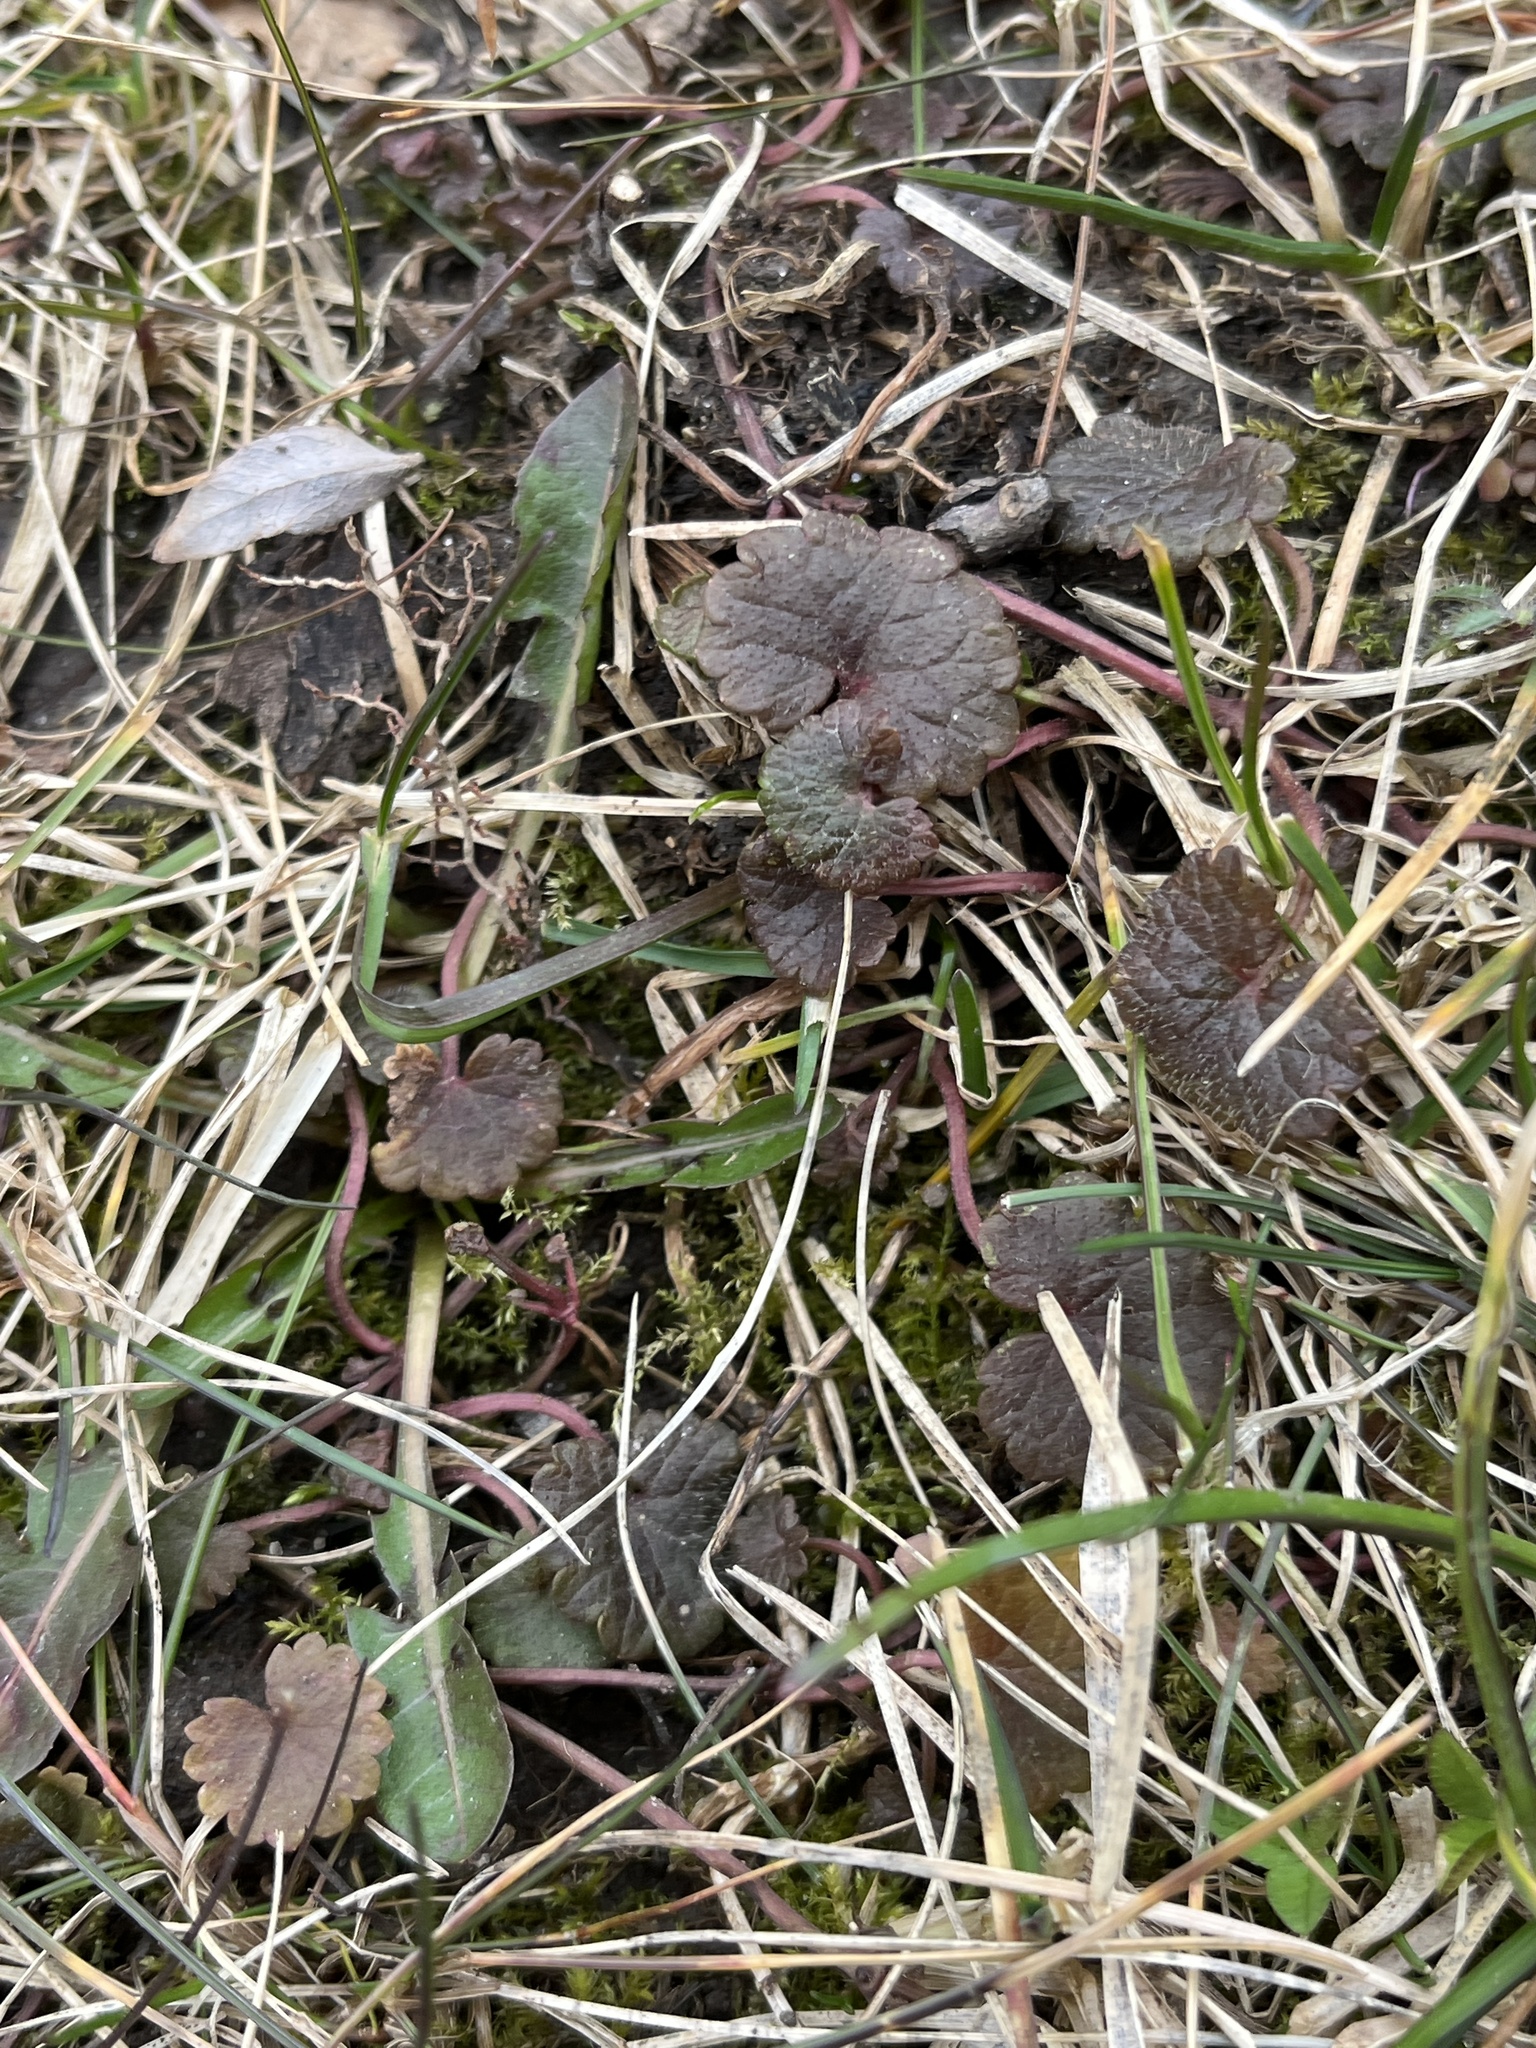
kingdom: Plantae
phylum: Tracheophyta
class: Magnoliopsida
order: Lamiales
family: Lamiaceae
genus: Glechoma
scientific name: Glechoma hederacea
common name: Ground ivy
